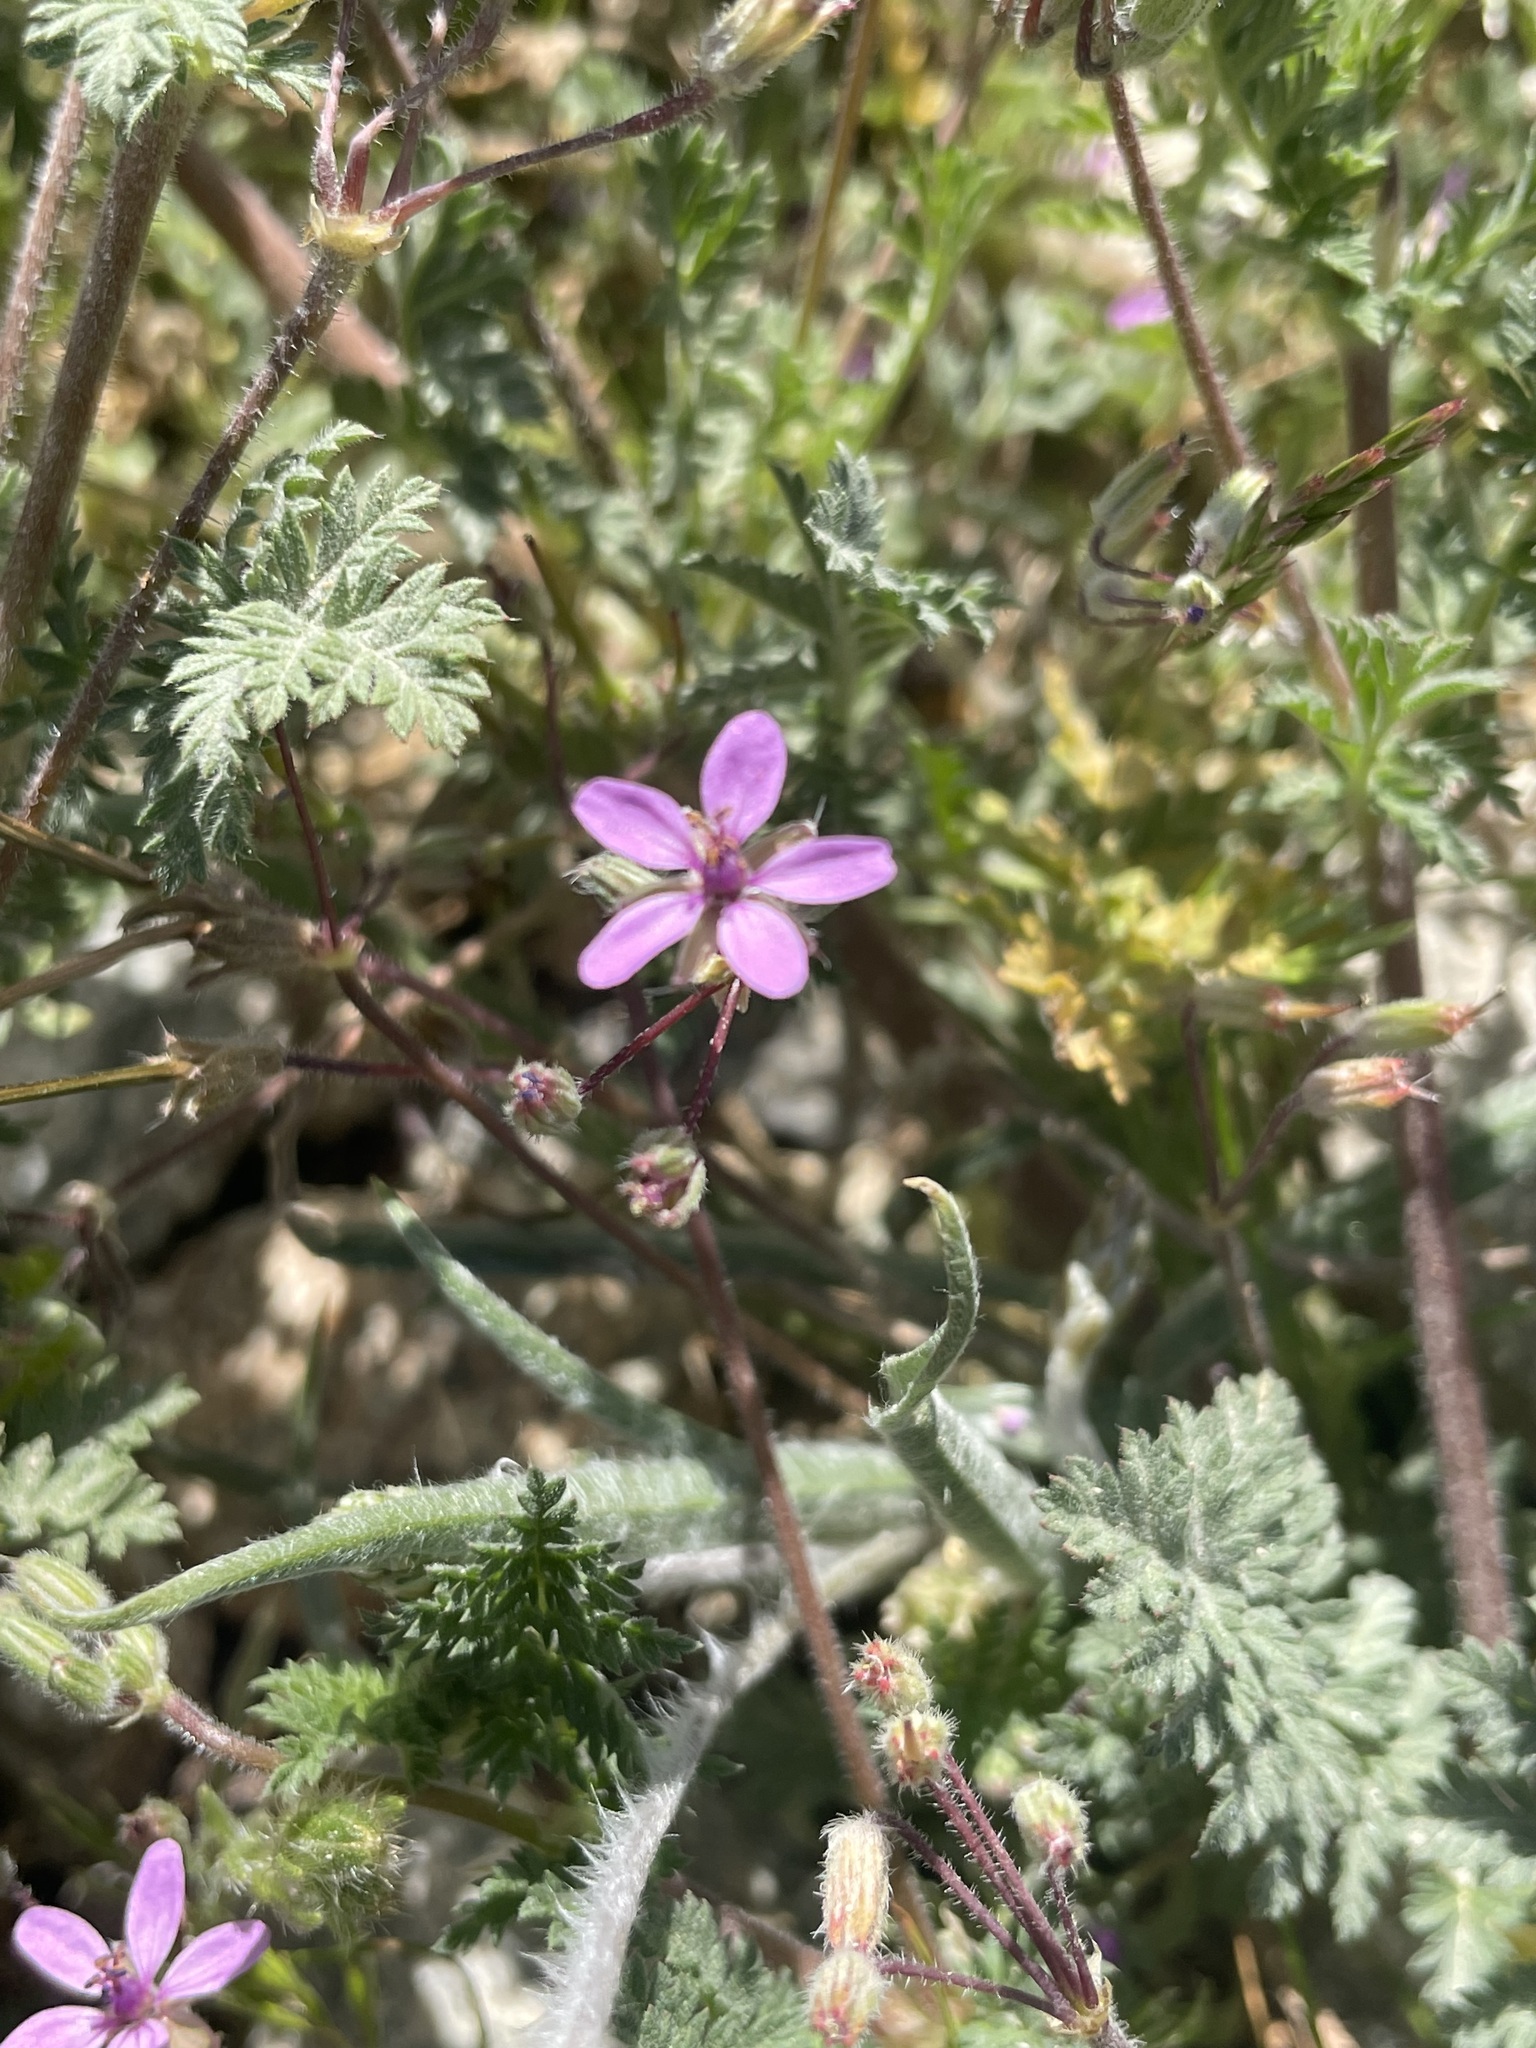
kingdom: Plantae
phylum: Tracheophyta
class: Magnoliopsida
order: Geraniales
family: Geraniaceae
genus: Erodium
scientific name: Erodium cicutarium
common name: Common stork's-bill
